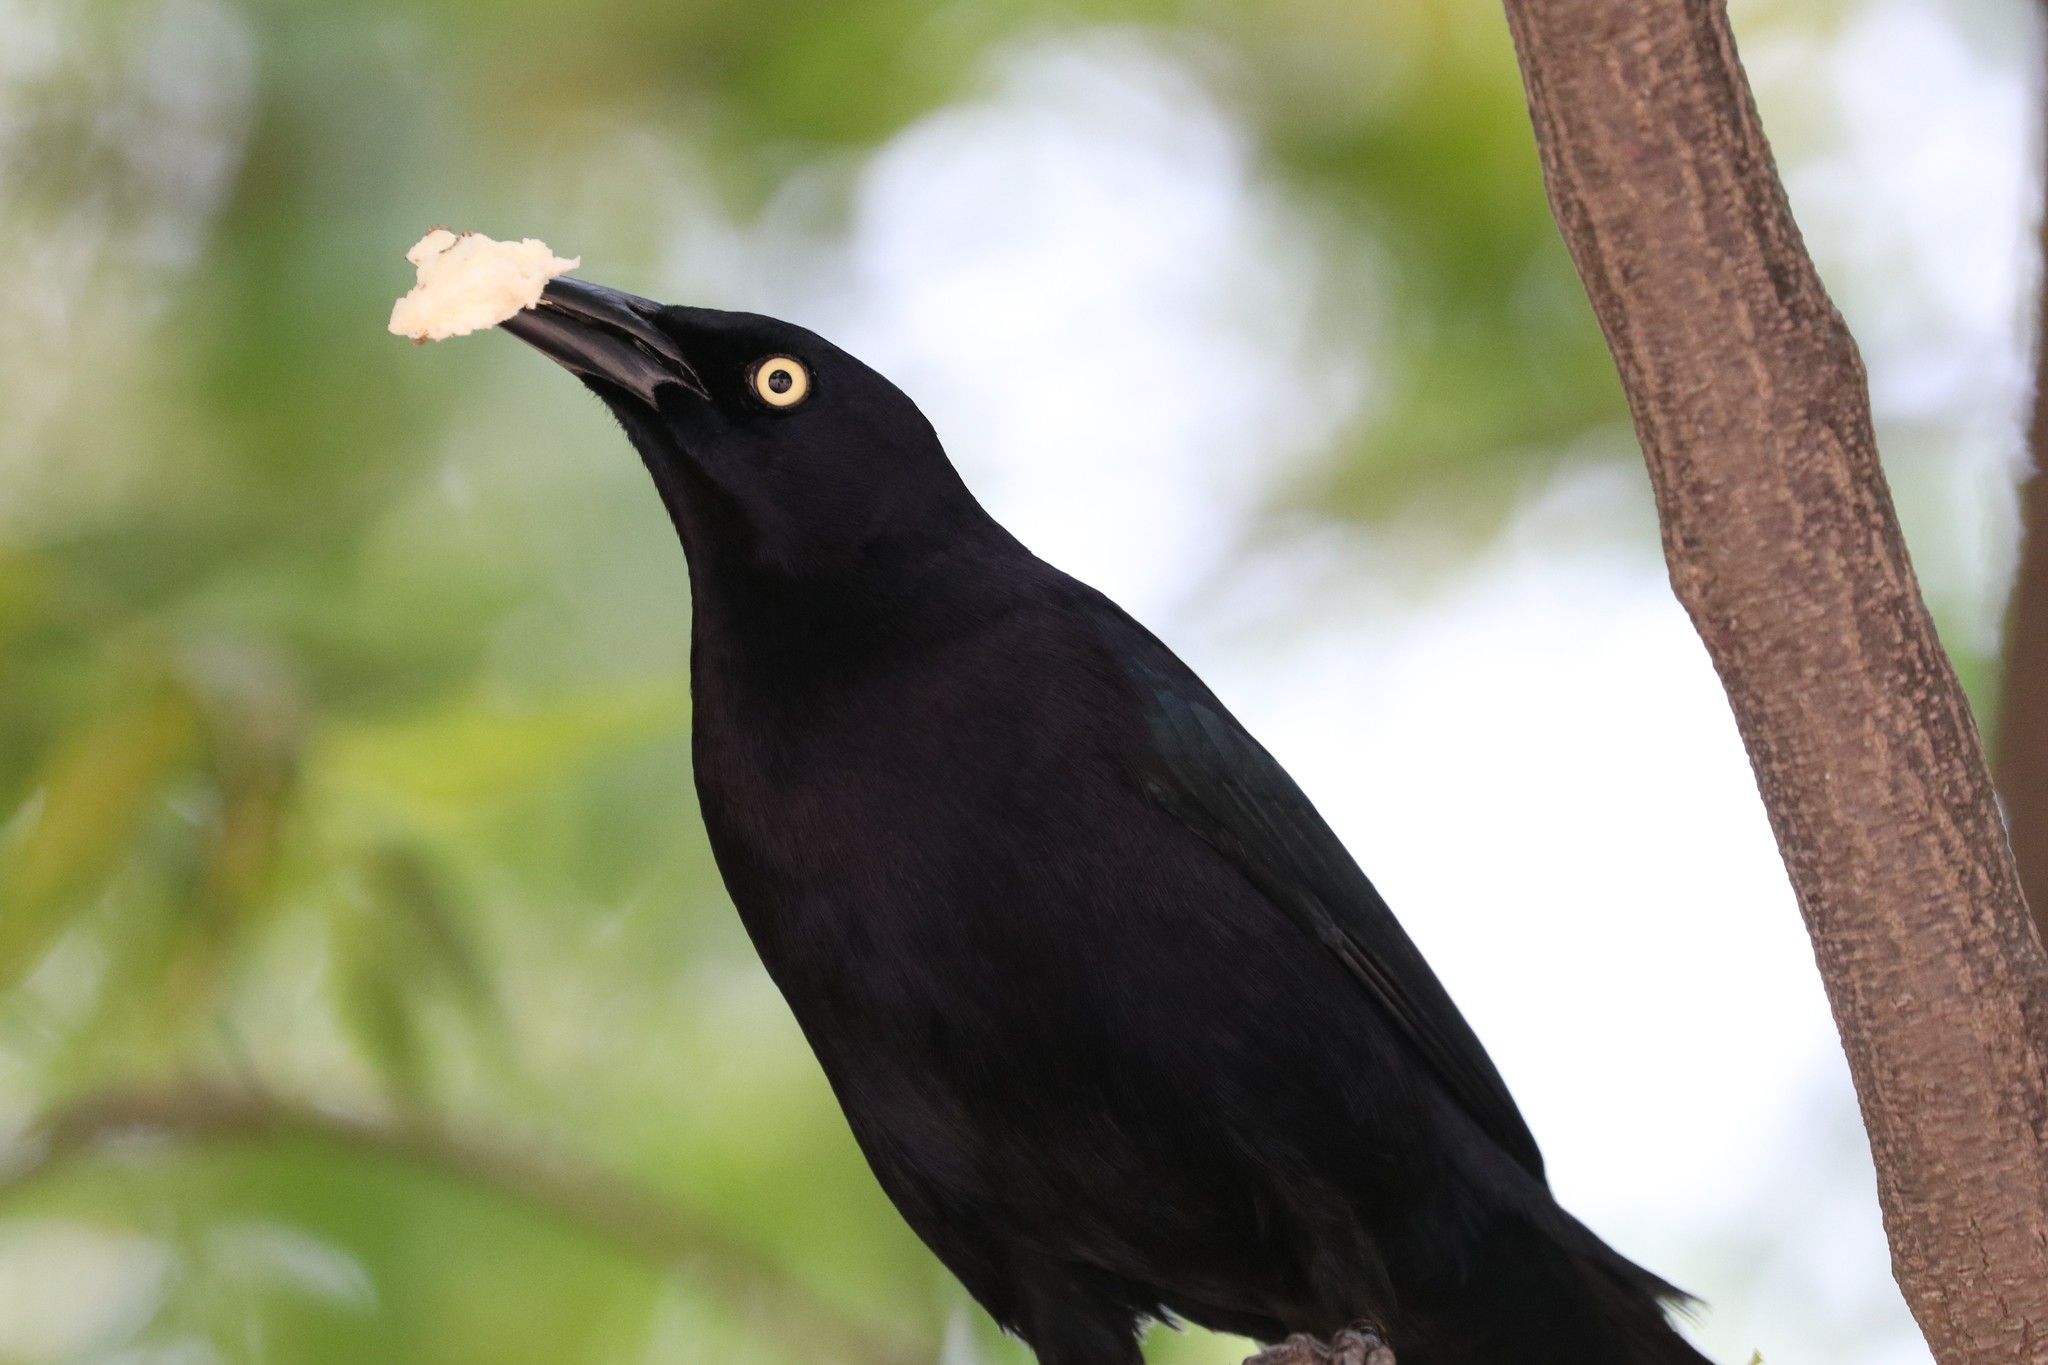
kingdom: Animalia
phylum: Chordata
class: Aves
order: Passeriformes
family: Icteridae
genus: Quiscalus
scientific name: Quiscalus lugubris
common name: Carib grackle
